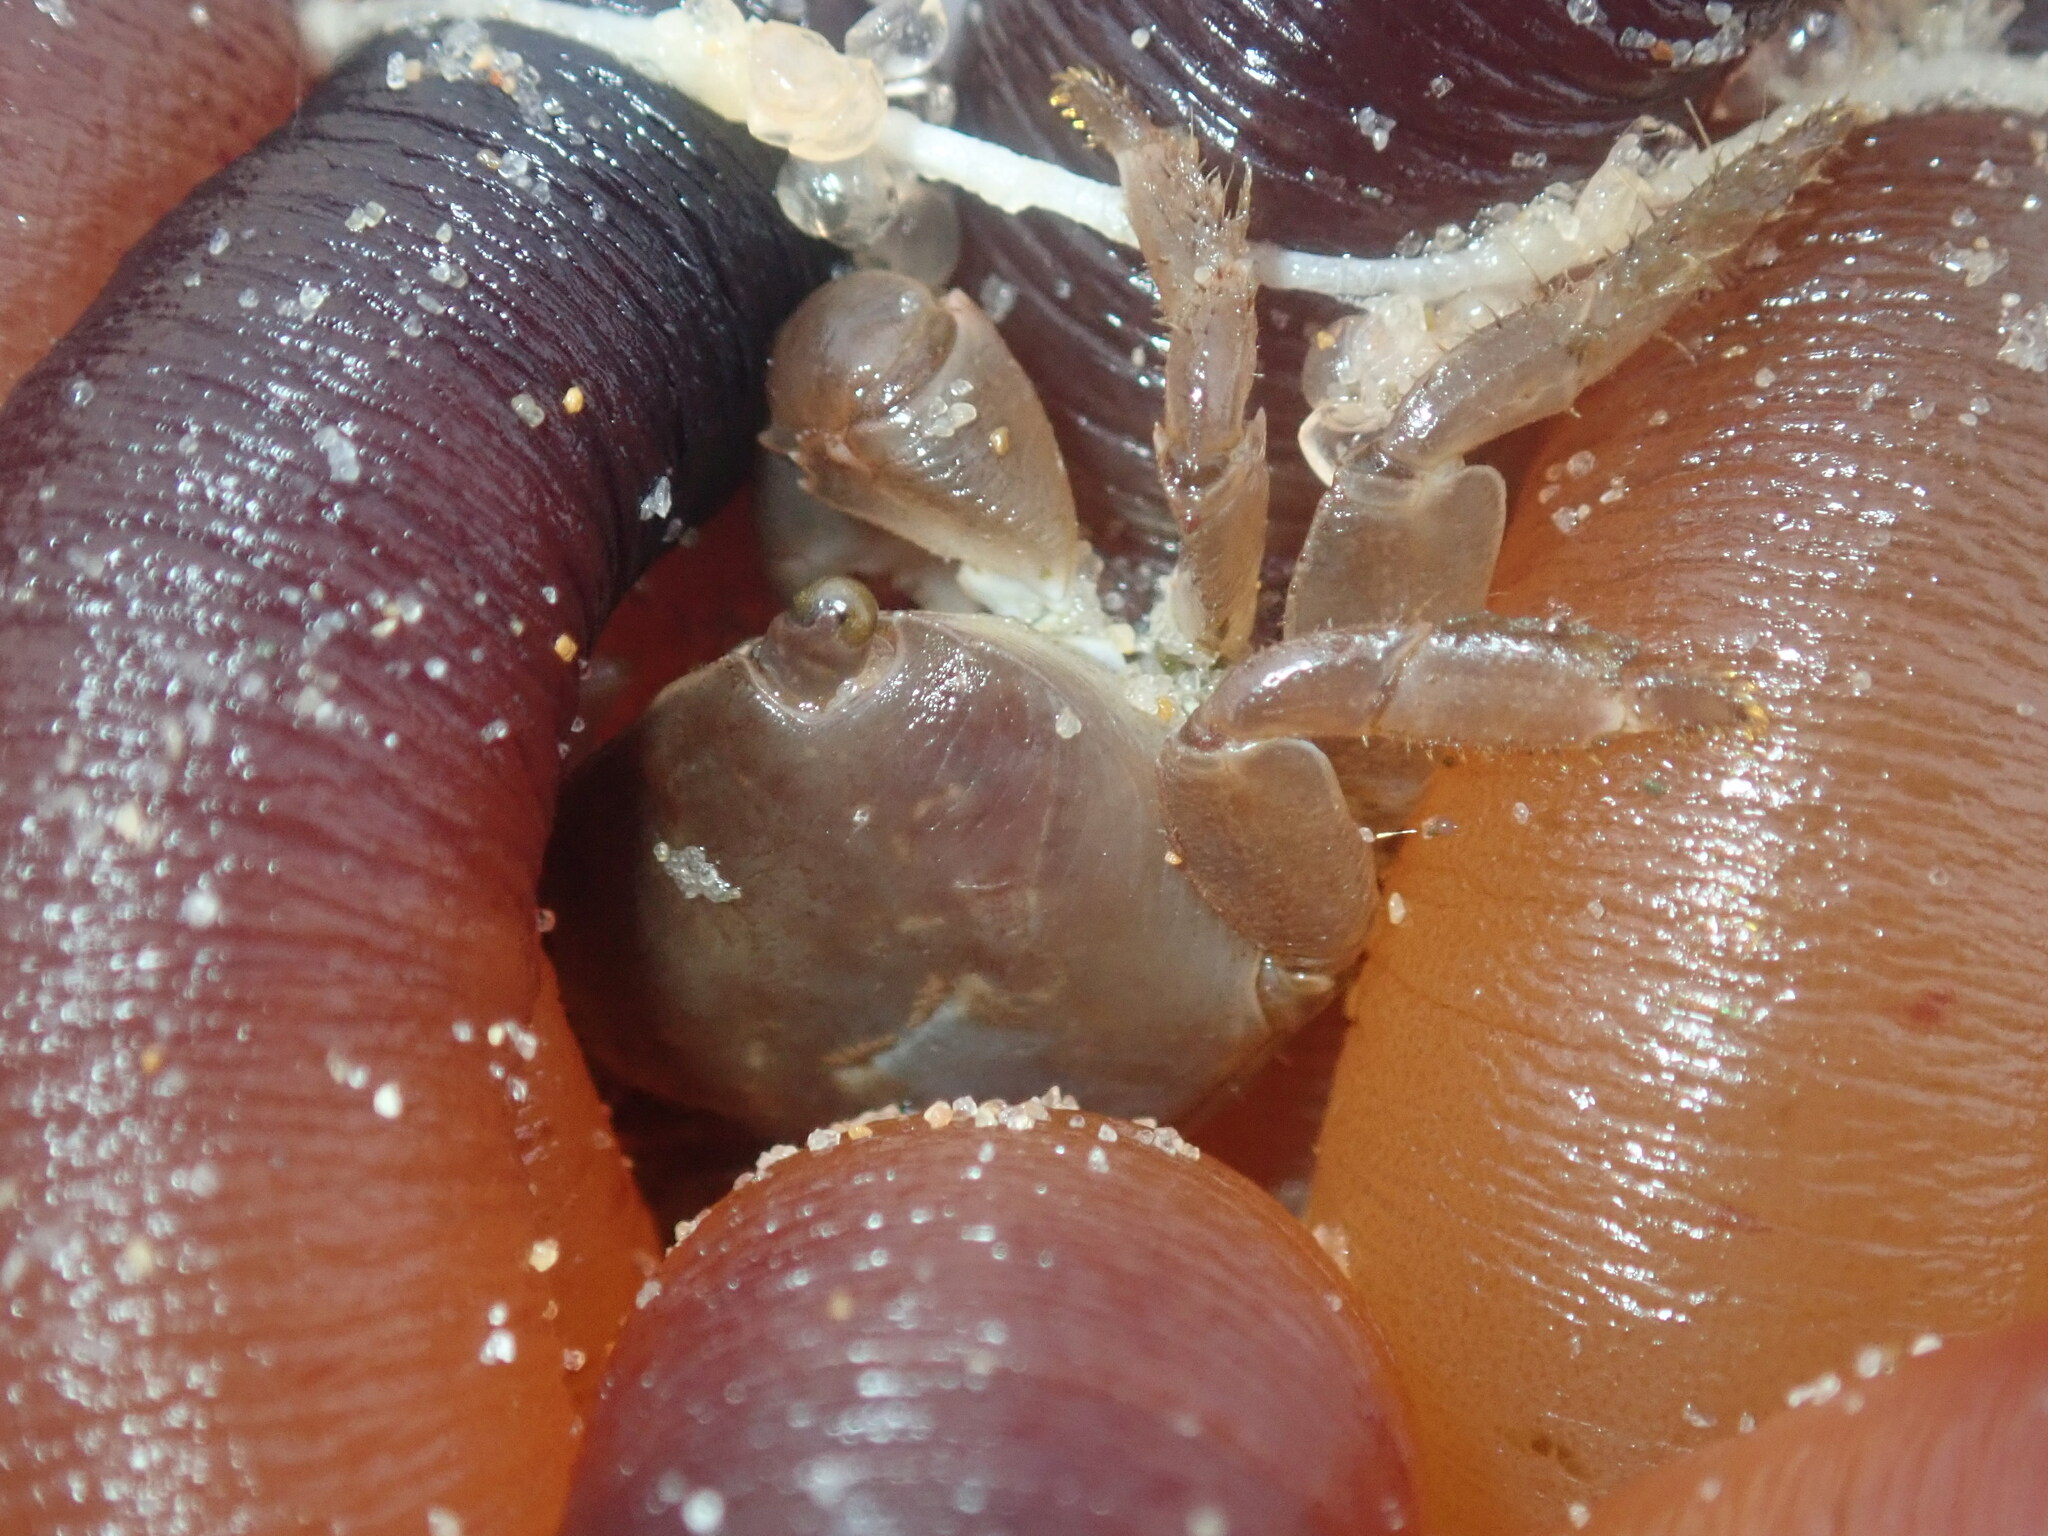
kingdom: Animalia
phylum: Arthropoda
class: Malacostraca
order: Decapoda
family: Grapsidae
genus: Planes
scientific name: Planes minutus
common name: Gulf weed crab
